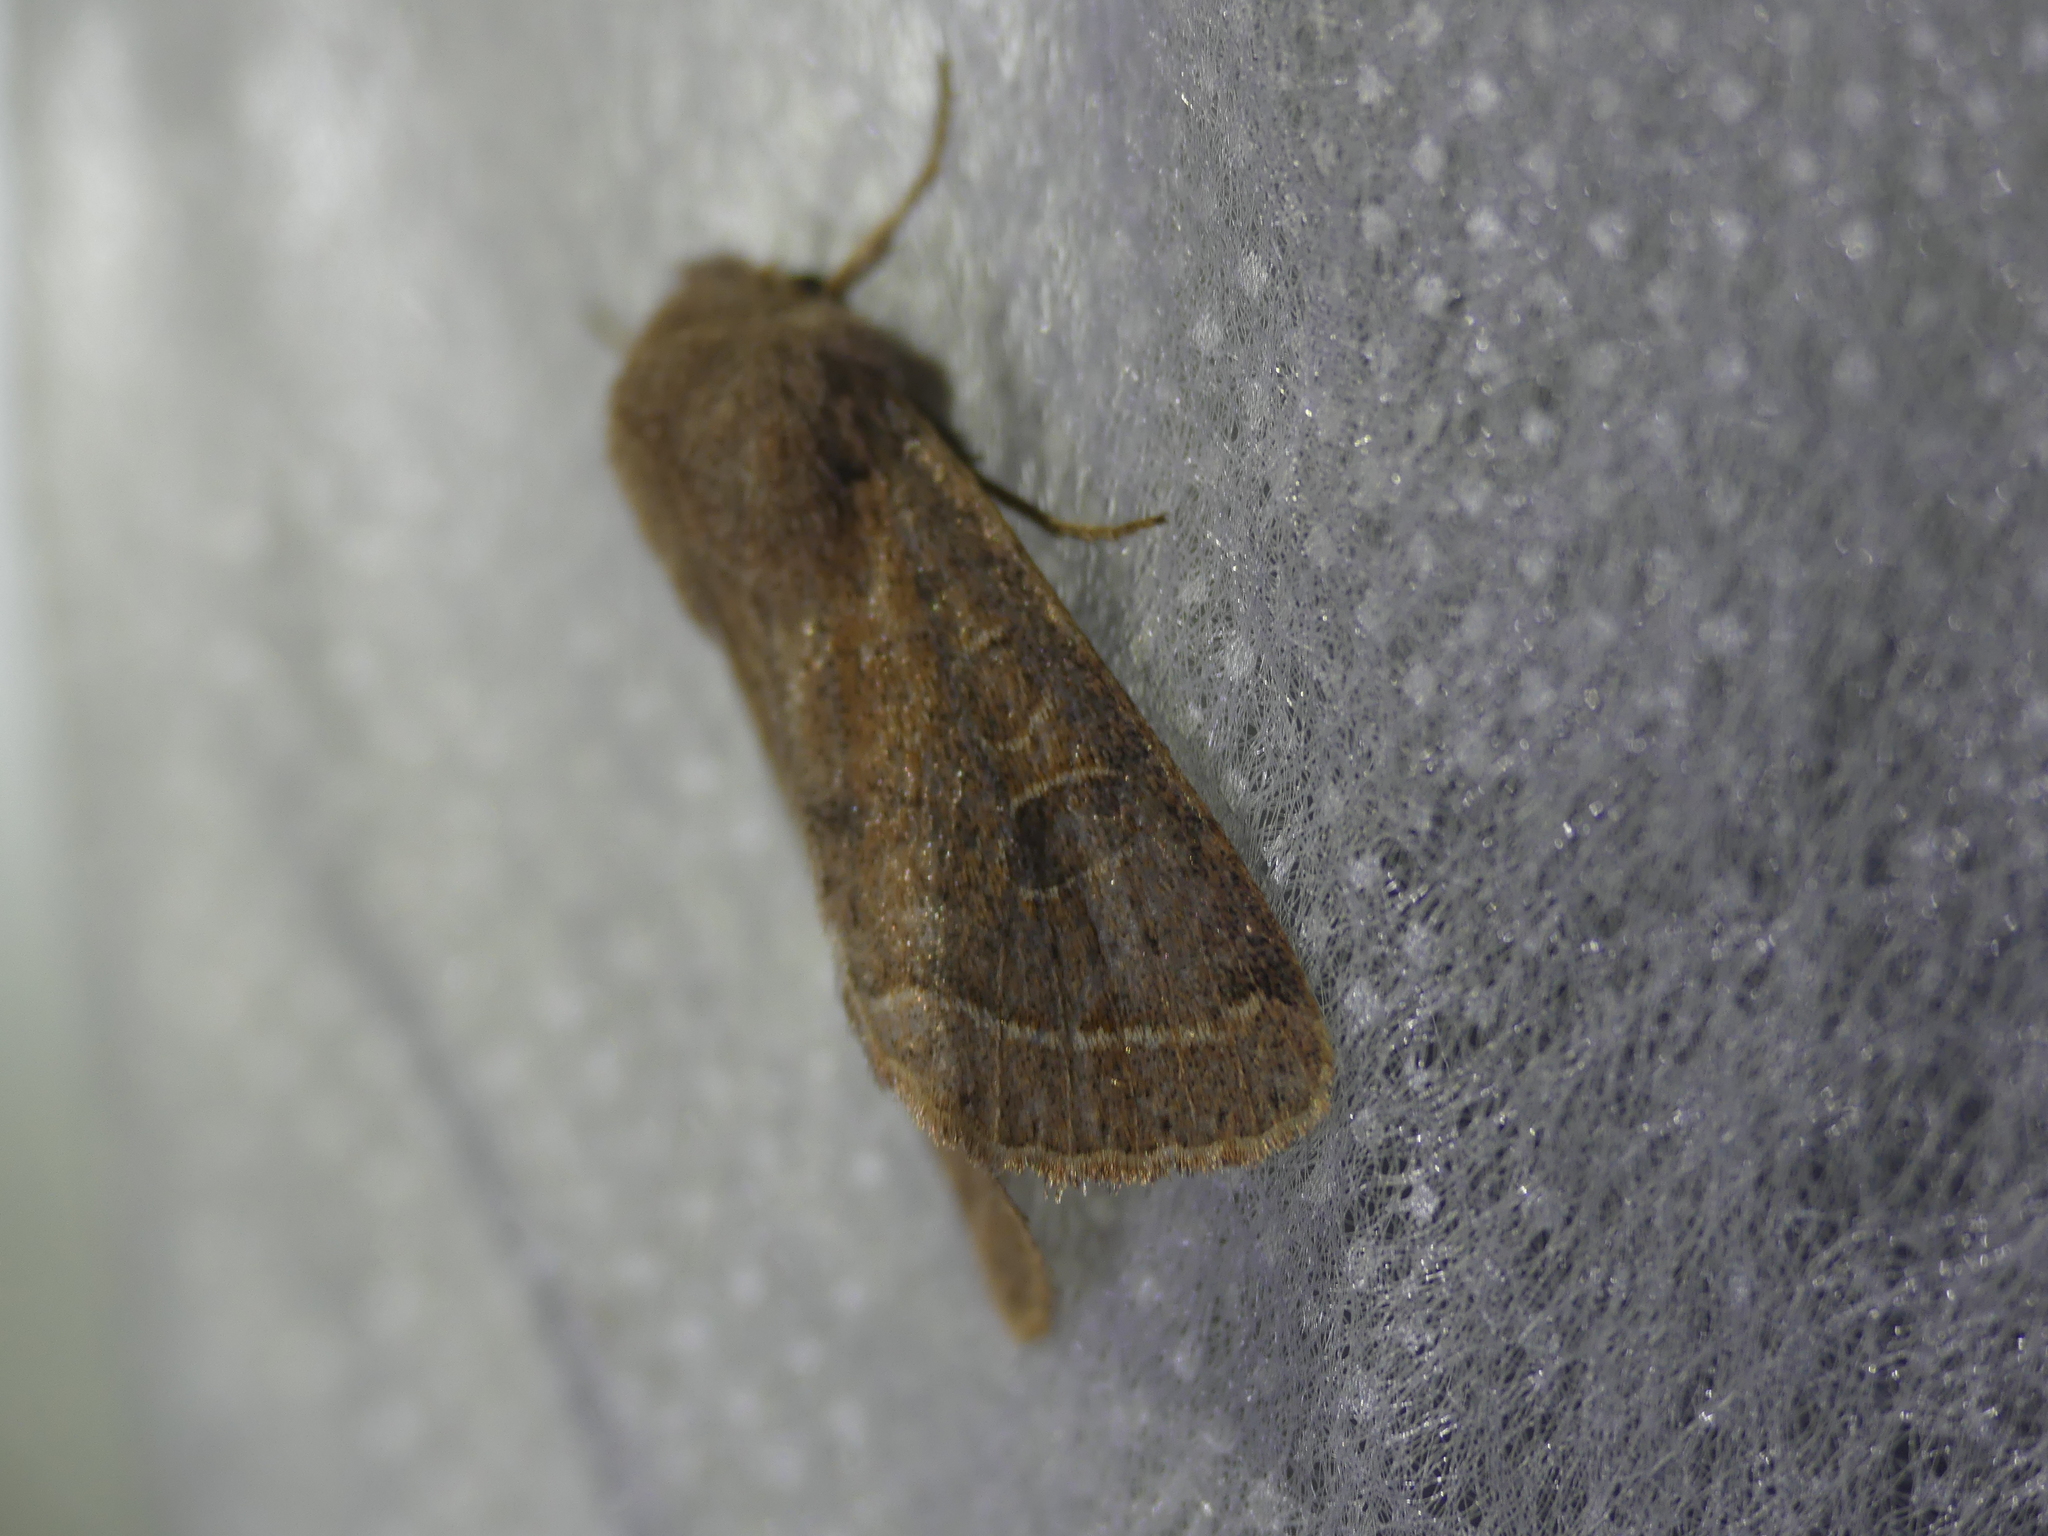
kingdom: Animalia
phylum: Arthropoda
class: Insecta
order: Lepidoptera
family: Noctuidae
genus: Orthosia
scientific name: Orthosia cerasi
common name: Common quaker
